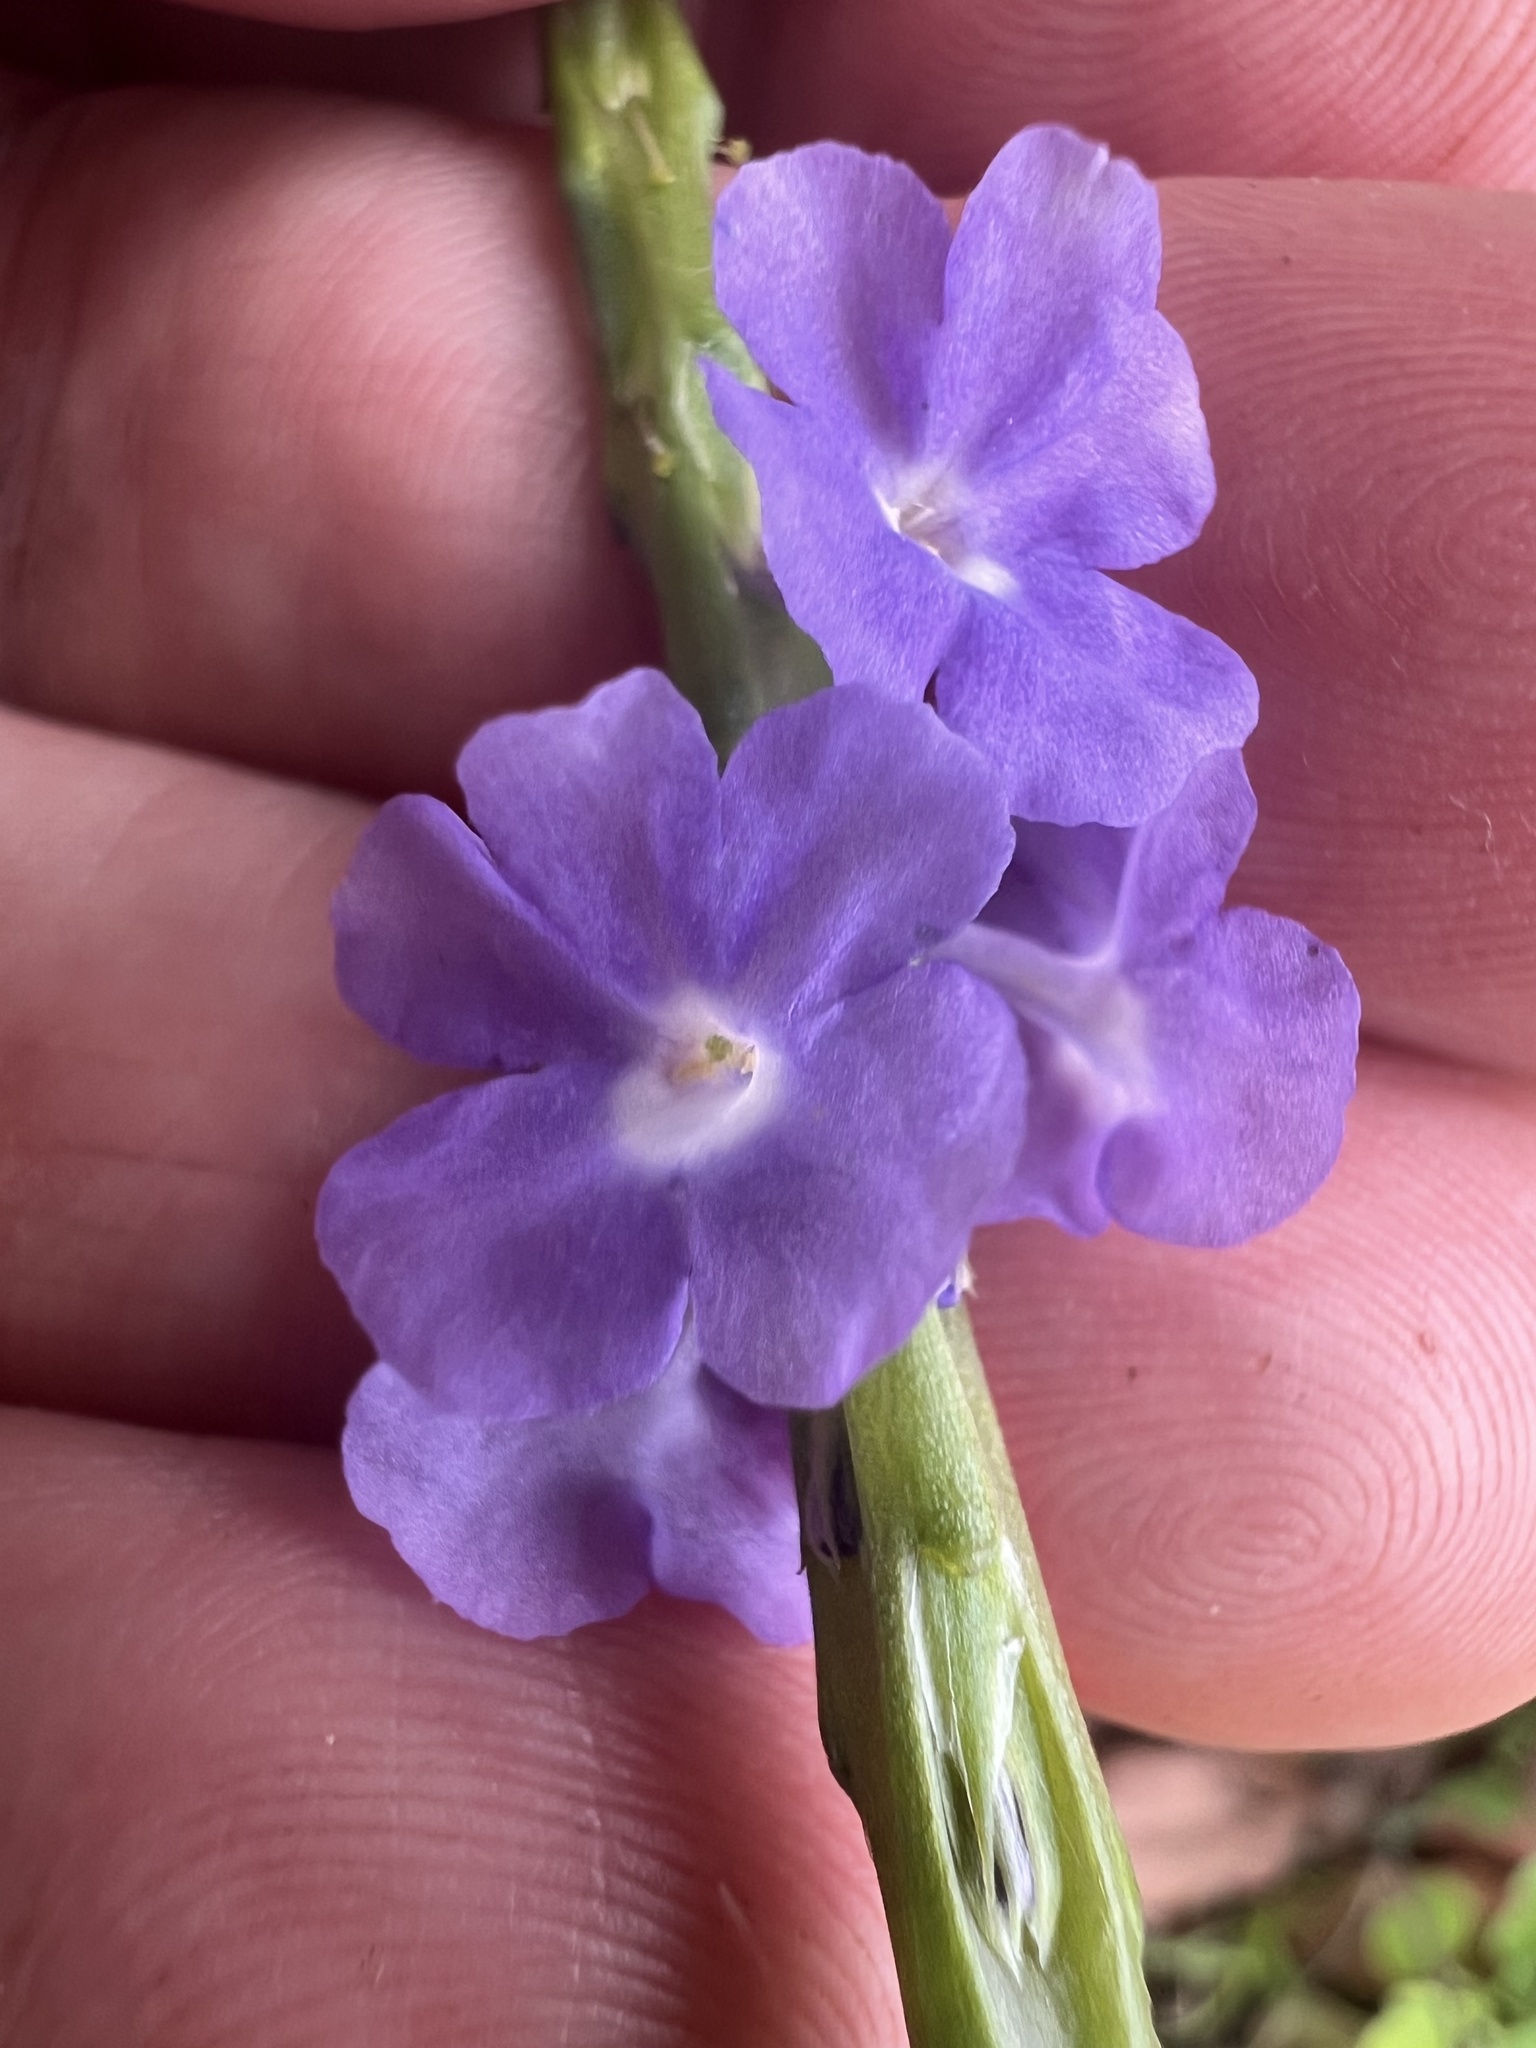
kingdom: Plantae
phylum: Tracheophyta
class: Magnoliopsida
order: Lamiales
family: Verbenaceae
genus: Stachytarpheta
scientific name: Stachytarpheta cayennensis
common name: Cayenne porterweed
